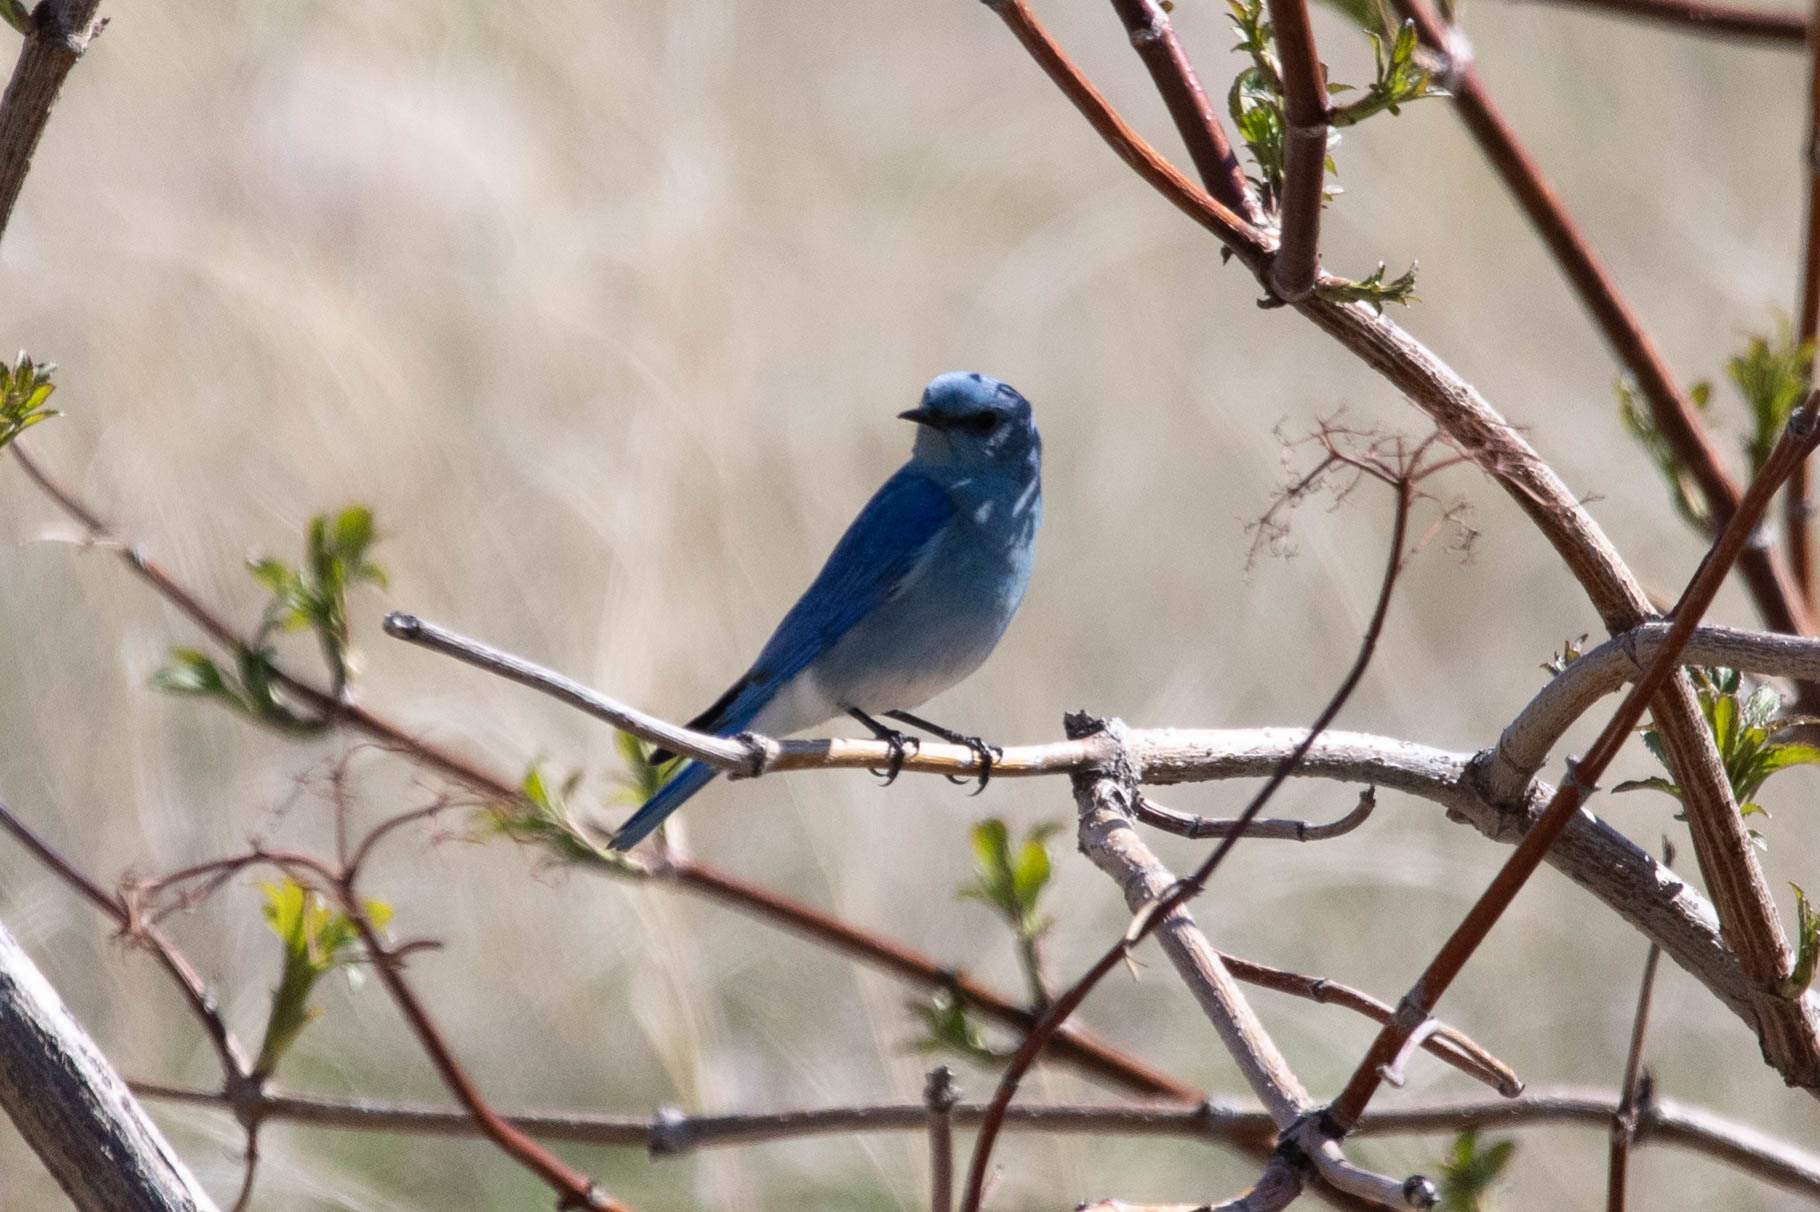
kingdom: Animalia
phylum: Chordata
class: Aves
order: Passeriformes
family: Turdidae
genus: Sialia
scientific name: Sialia currucoides
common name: Mountain bluebird
